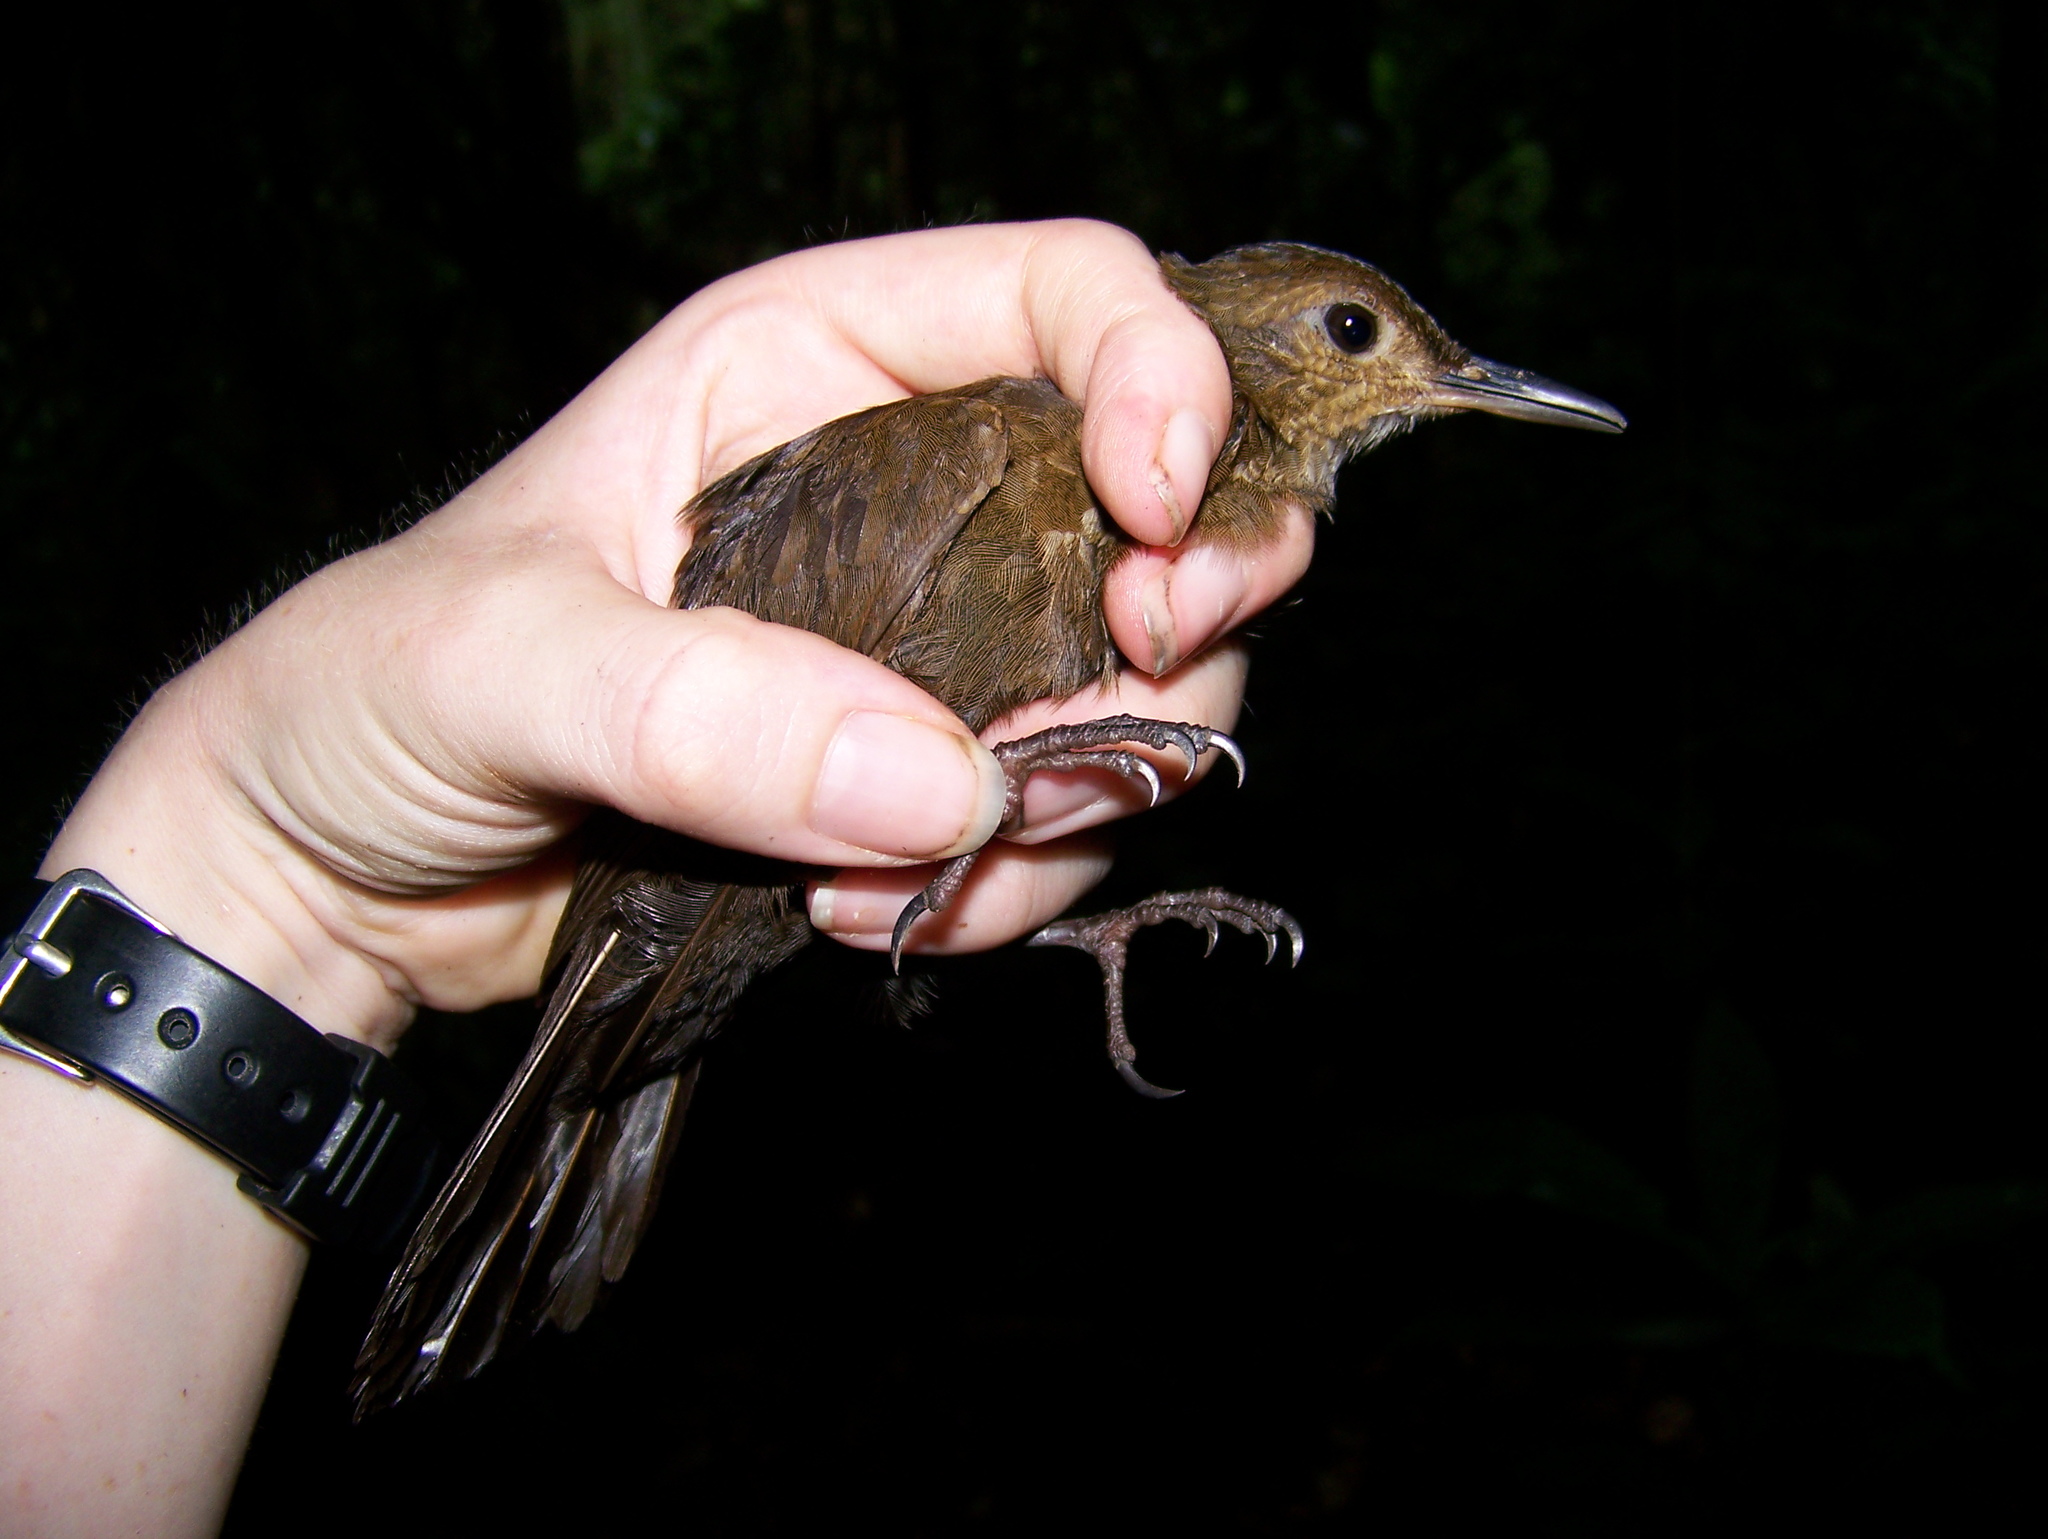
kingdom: Animalia
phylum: Chordata
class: Aves
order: Passeriformes
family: Furnariidae
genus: Sclerurus
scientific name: Sclerurus caudacutus
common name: Black-tailed leaftosser
